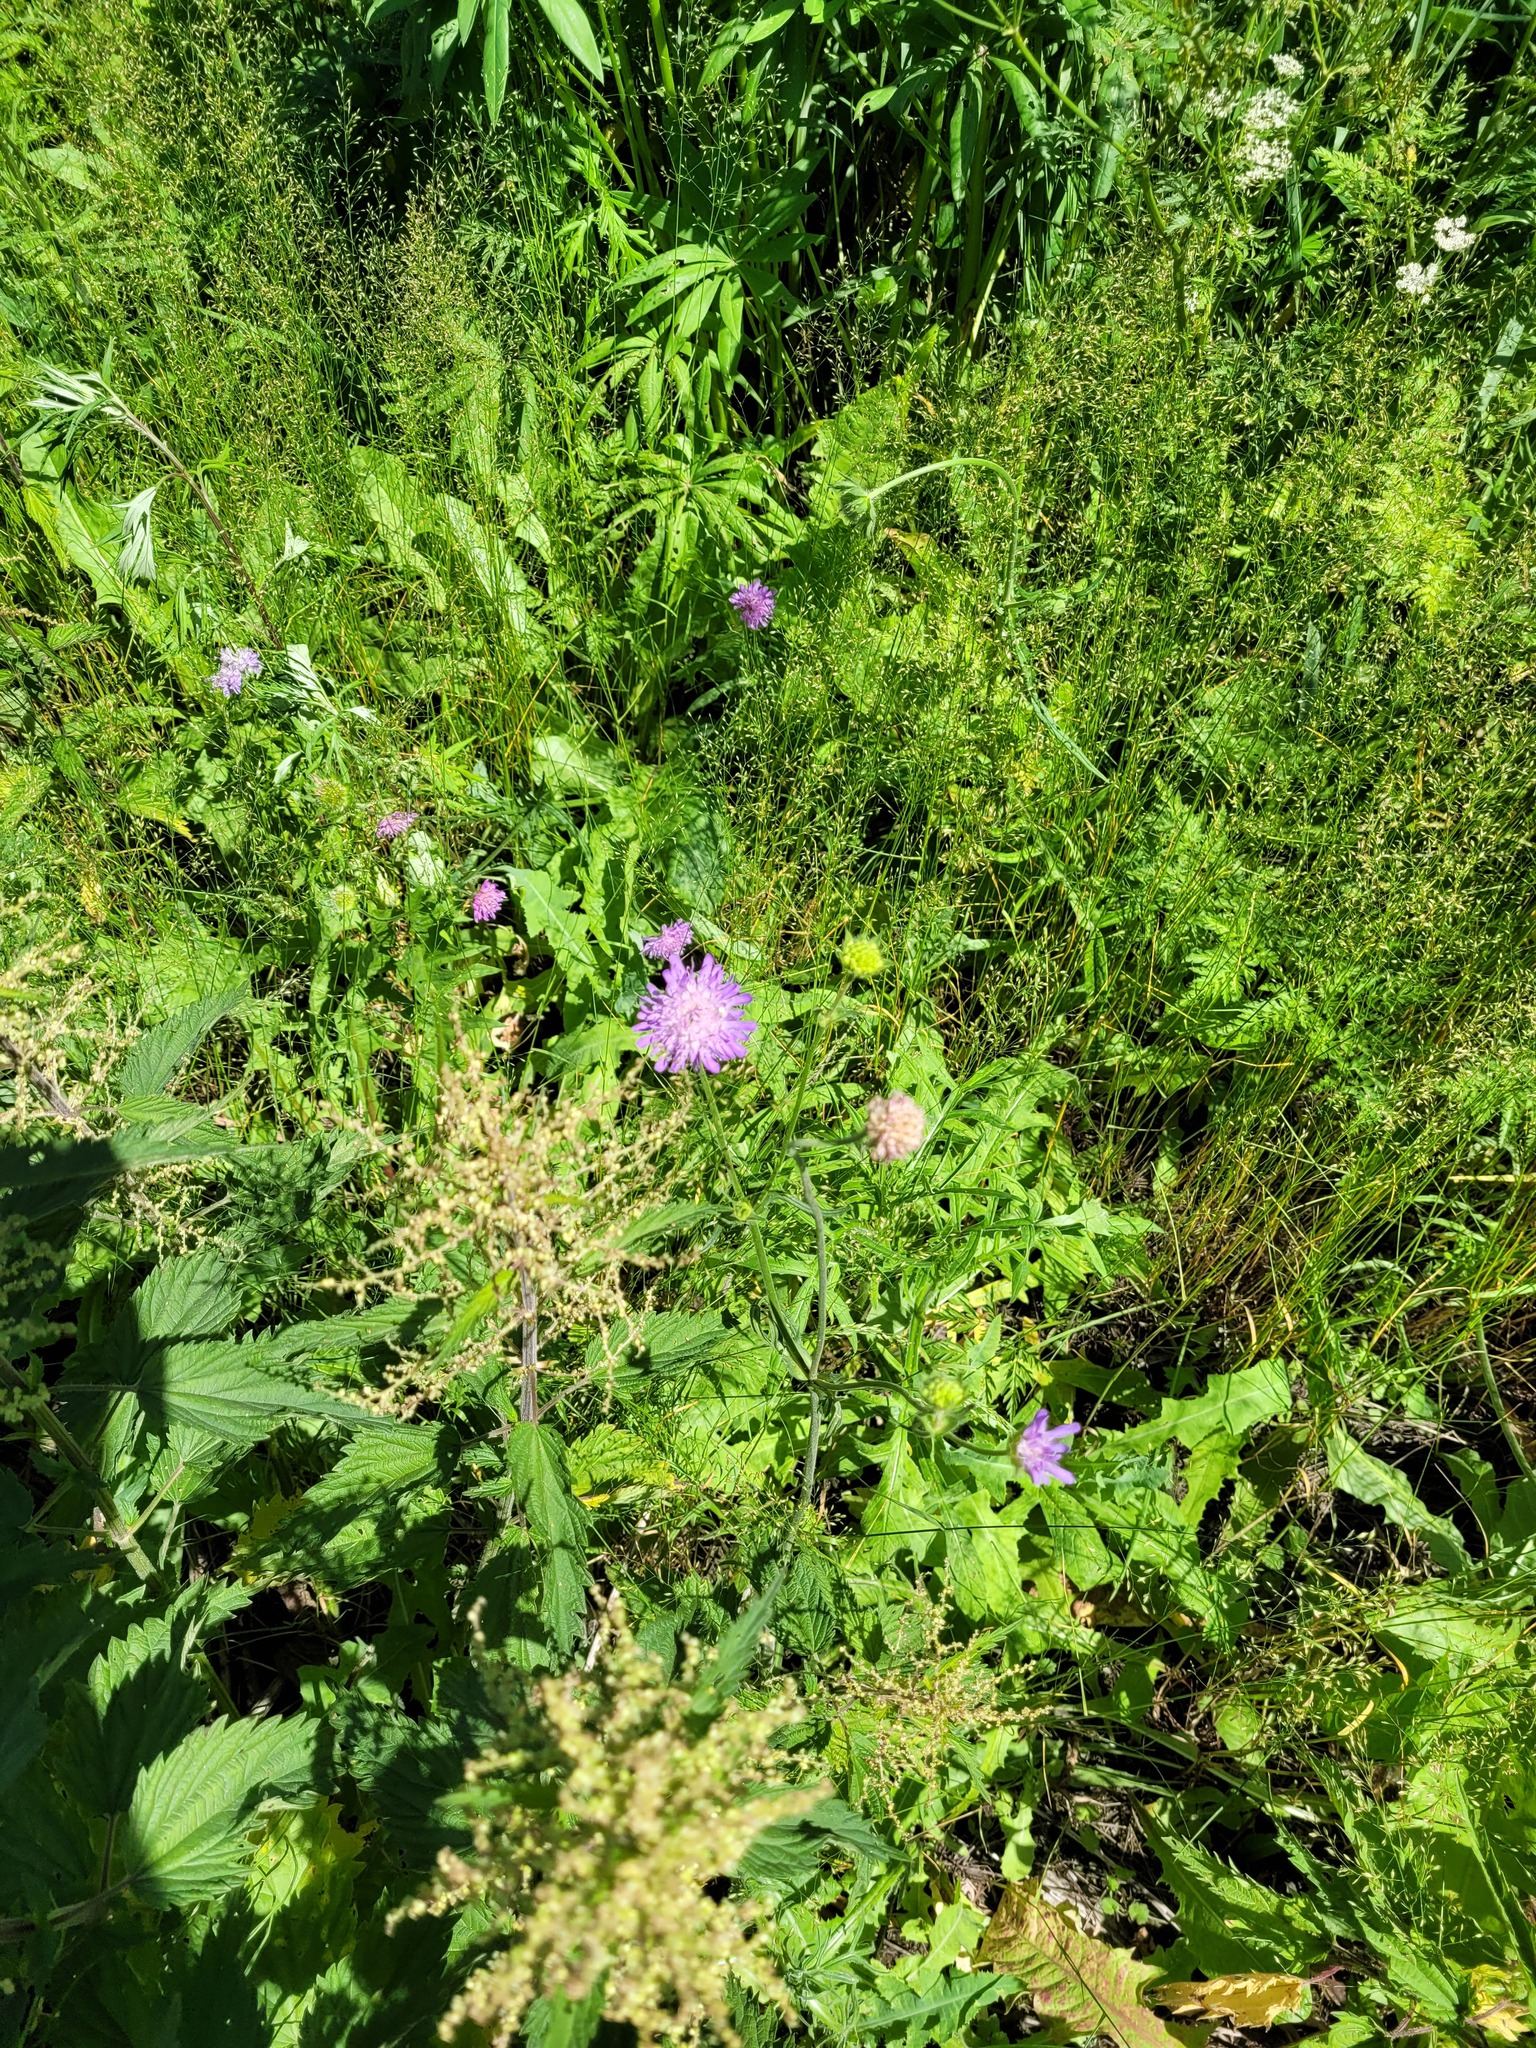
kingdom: Plantae
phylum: Tracheophyta
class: Magnoliopsida
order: Dipsacales
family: Caprifoliaceae
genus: Knautia
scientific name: Knautia arvensis
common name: Field scabiosa
